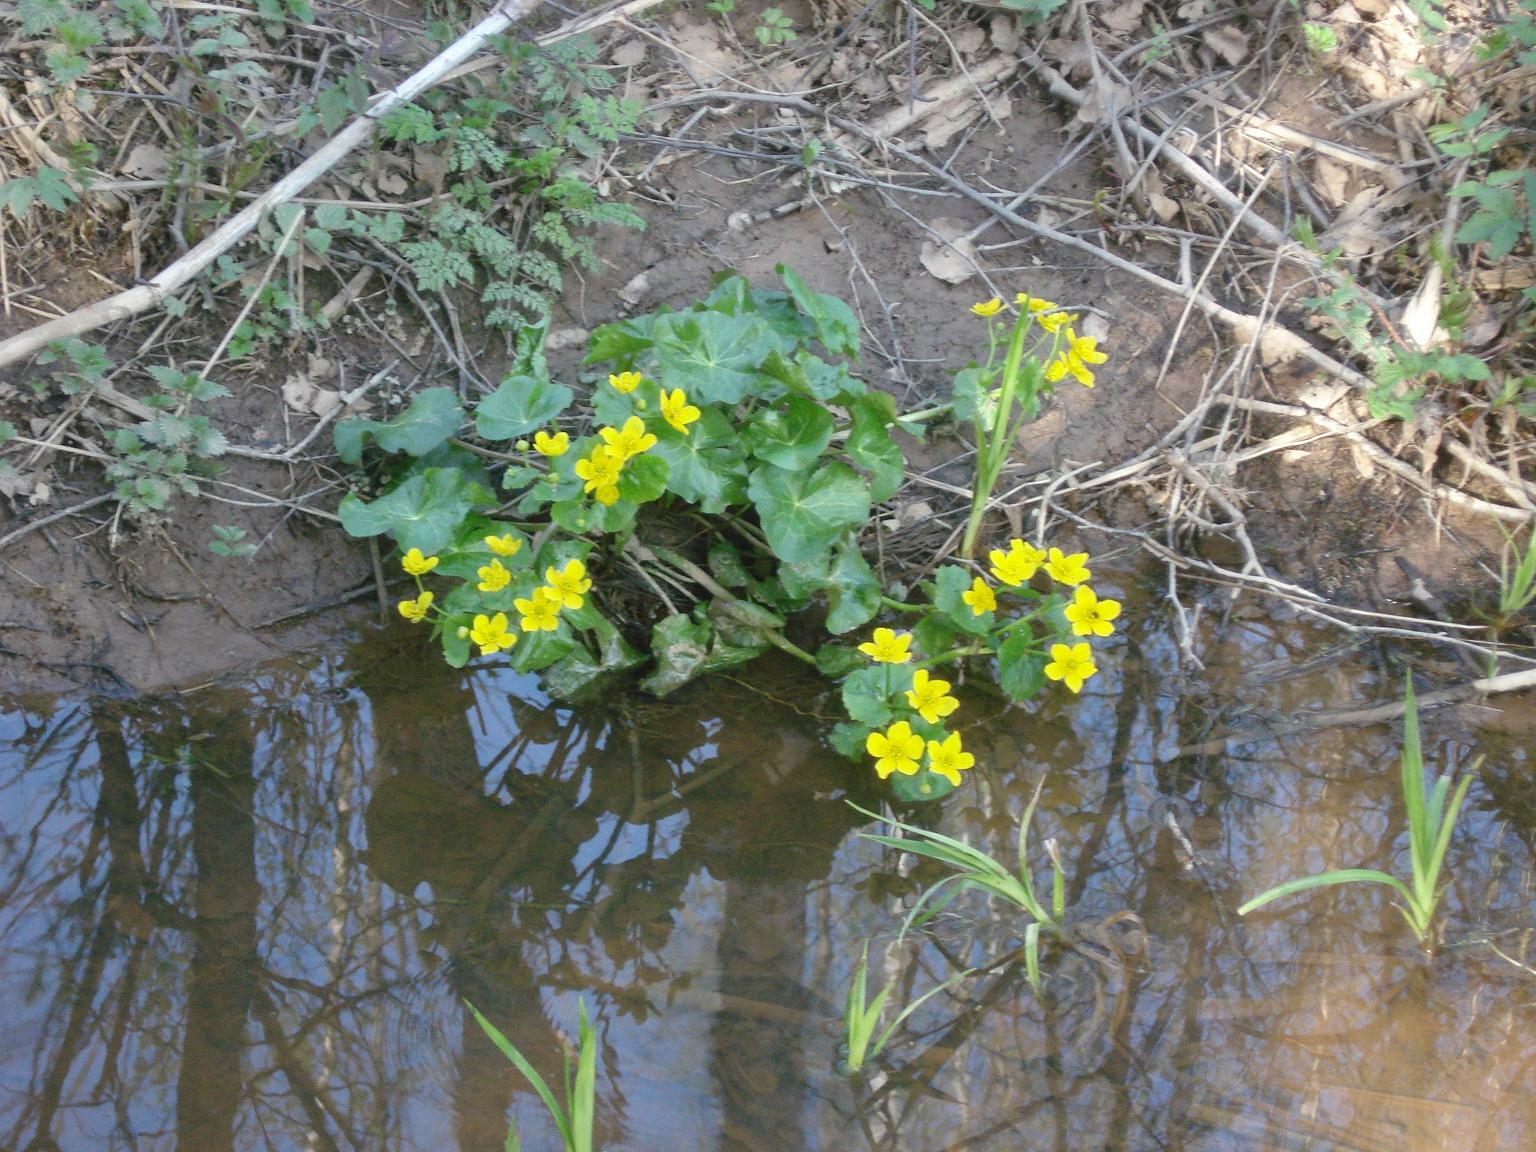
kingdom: Plantae
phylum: Tracheophyta
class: Magnoliopsida
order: Ranunculales
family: Ranunculaceae
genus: Caltha
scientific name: Caltha palustris
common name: Marsh marigold
